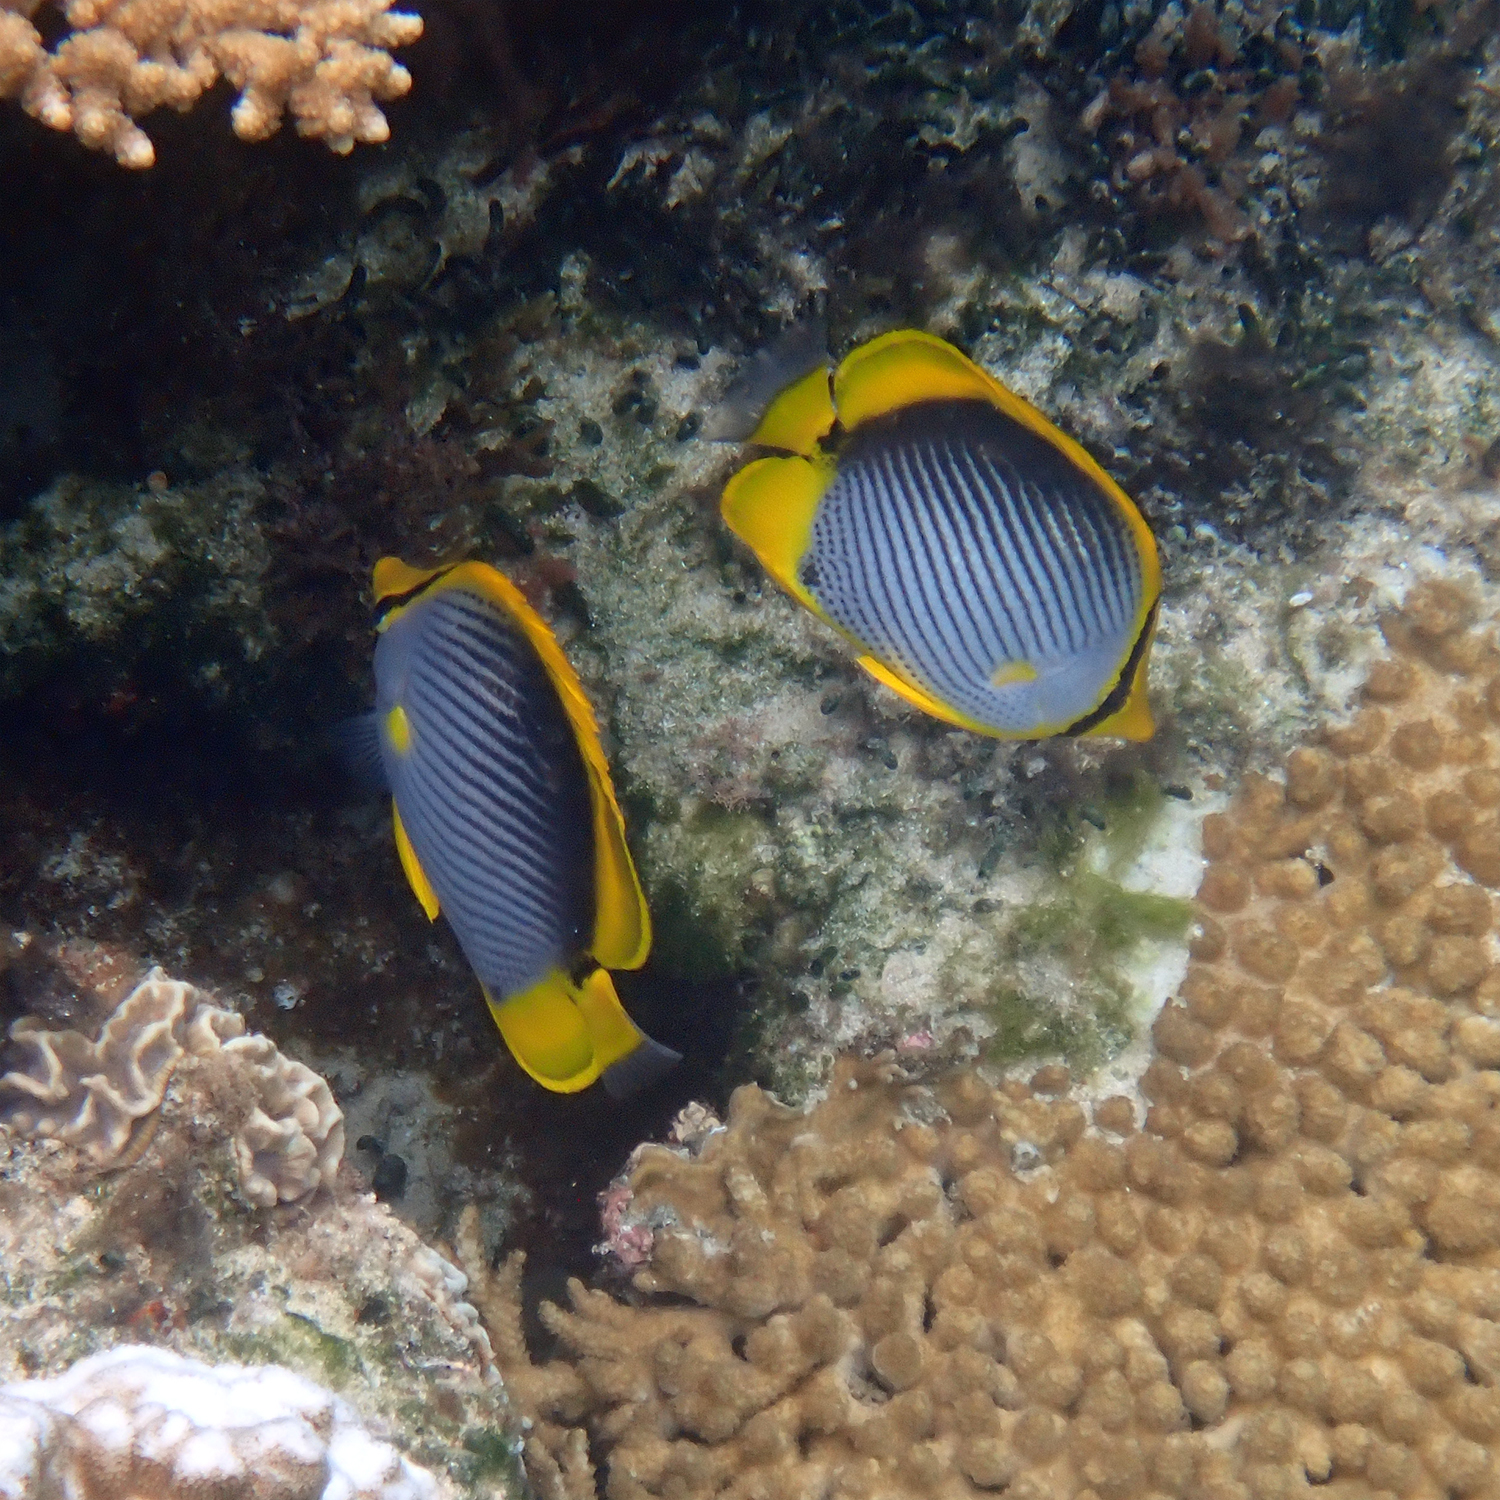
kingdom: Animalia
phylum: Chordata
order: Perciformes
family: Chaetodontidae
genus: Chaetodon
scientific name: Chaetodon melannotus
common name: Blackback butterflyfish
